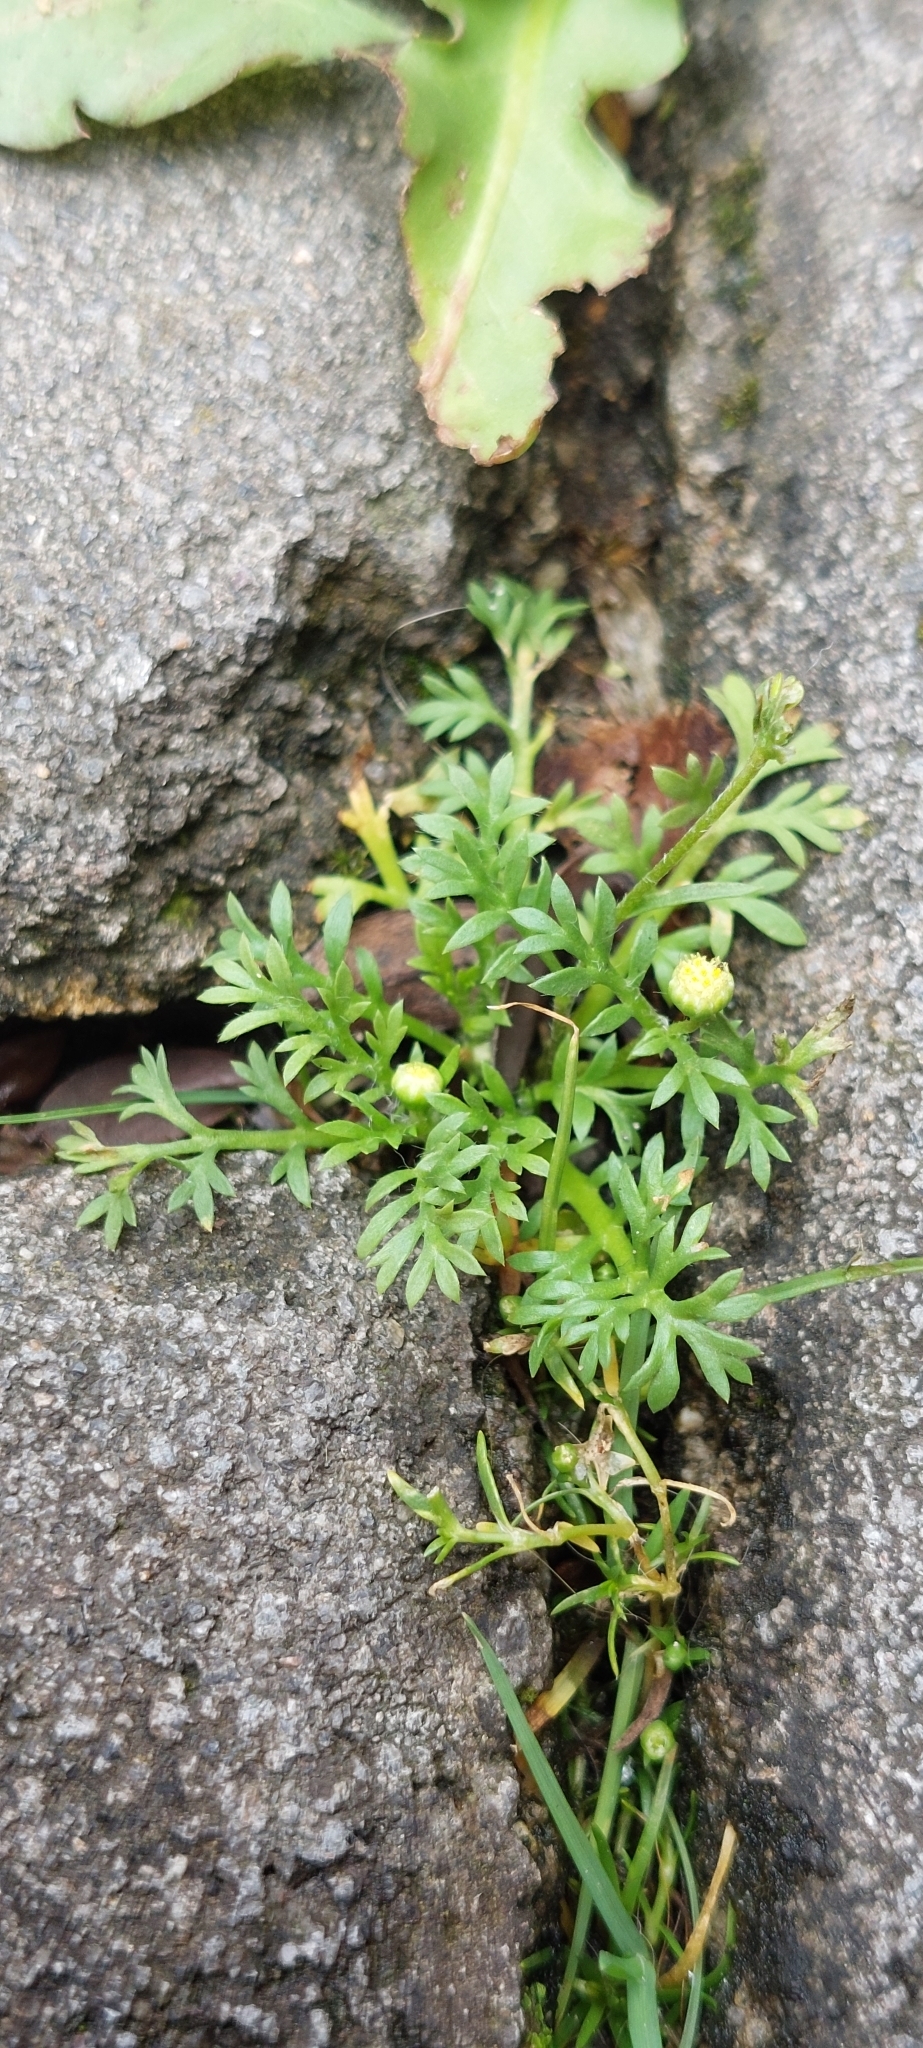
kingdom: Plantae
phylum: Tracheophyta
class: Magnoliopsida
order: Asterales
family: Asteraceae
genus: Cotula
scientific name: Cotula australis
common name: Australian waterbuttons
